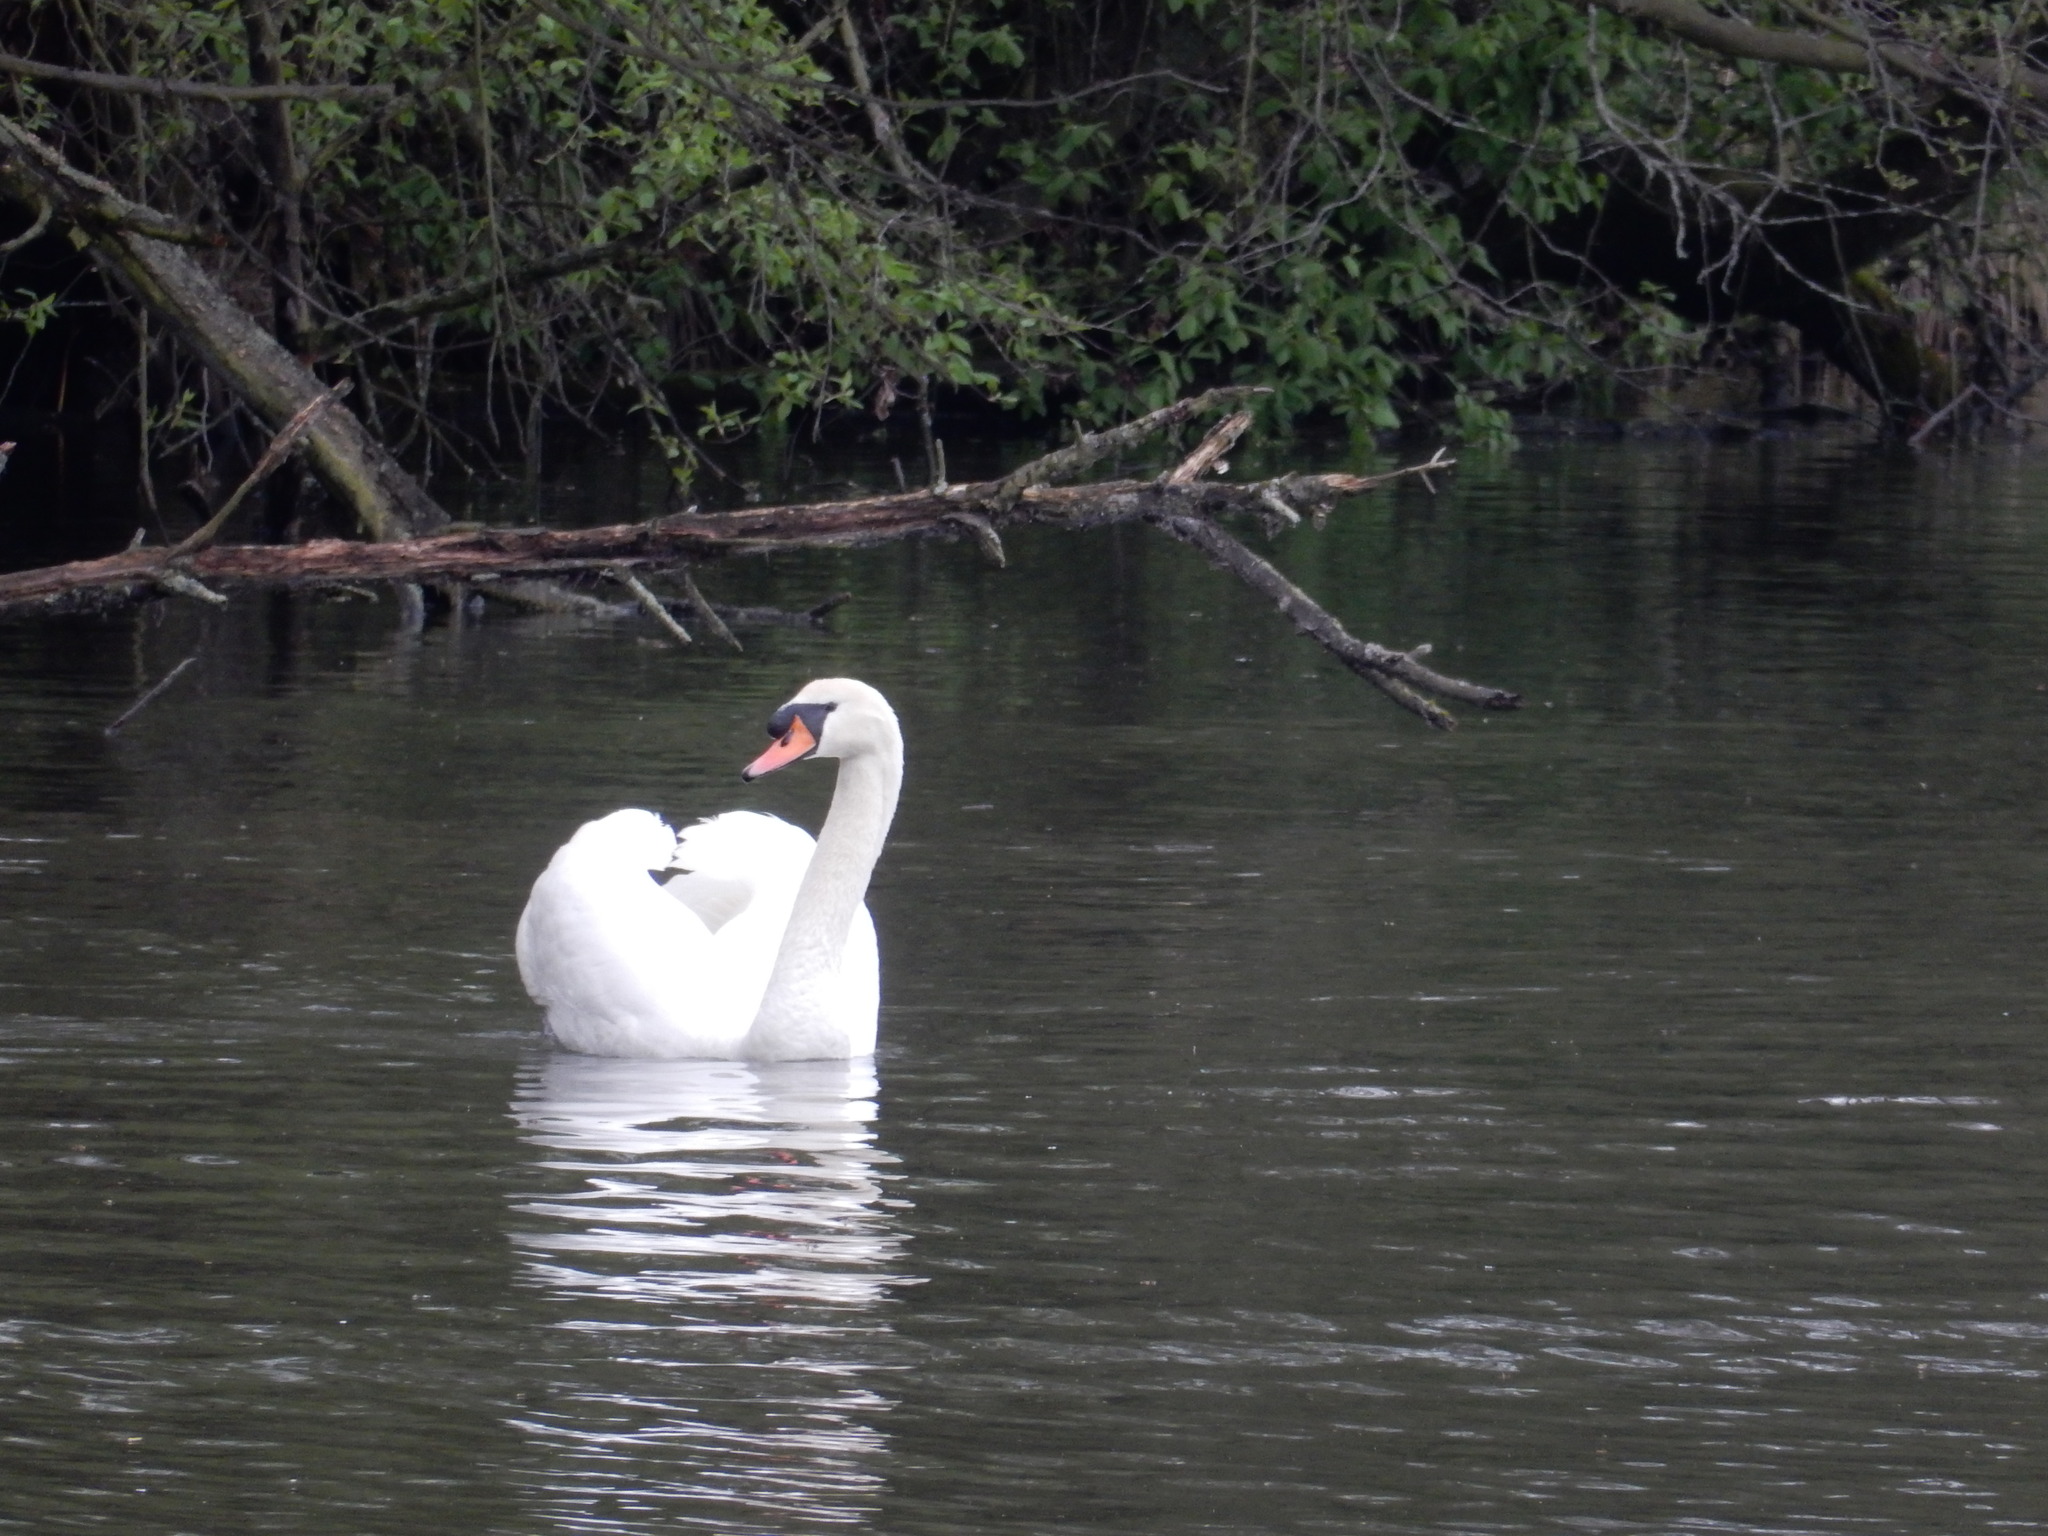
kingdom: Animalia
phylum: Chordata
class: Aves
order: Anseriformes
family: Anatidae
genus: Cygnus
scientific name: Cygnus olor
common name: Mute swan
